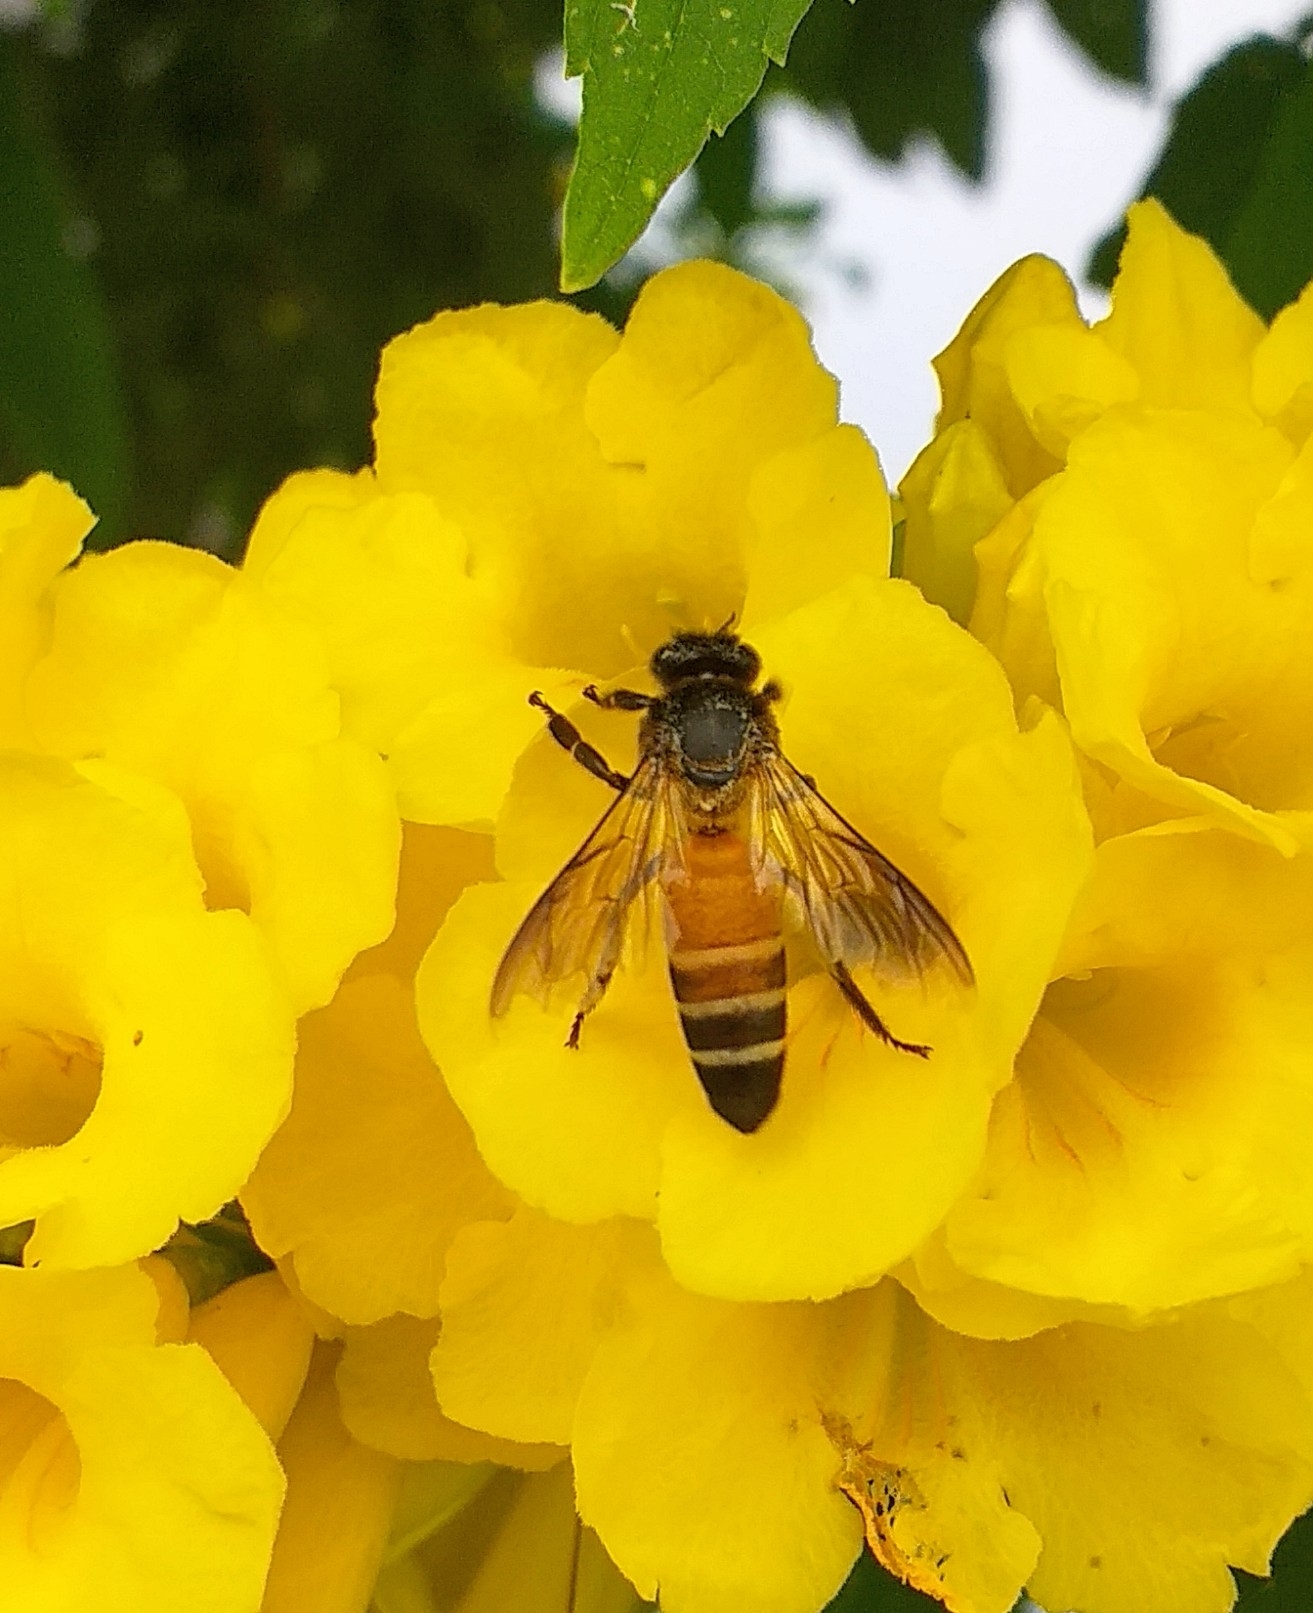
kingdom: Animalia
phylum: Arthropoda
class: Insecta
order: Hymenoptera
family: Apidae
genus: Apis
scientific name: Apis dorsata
